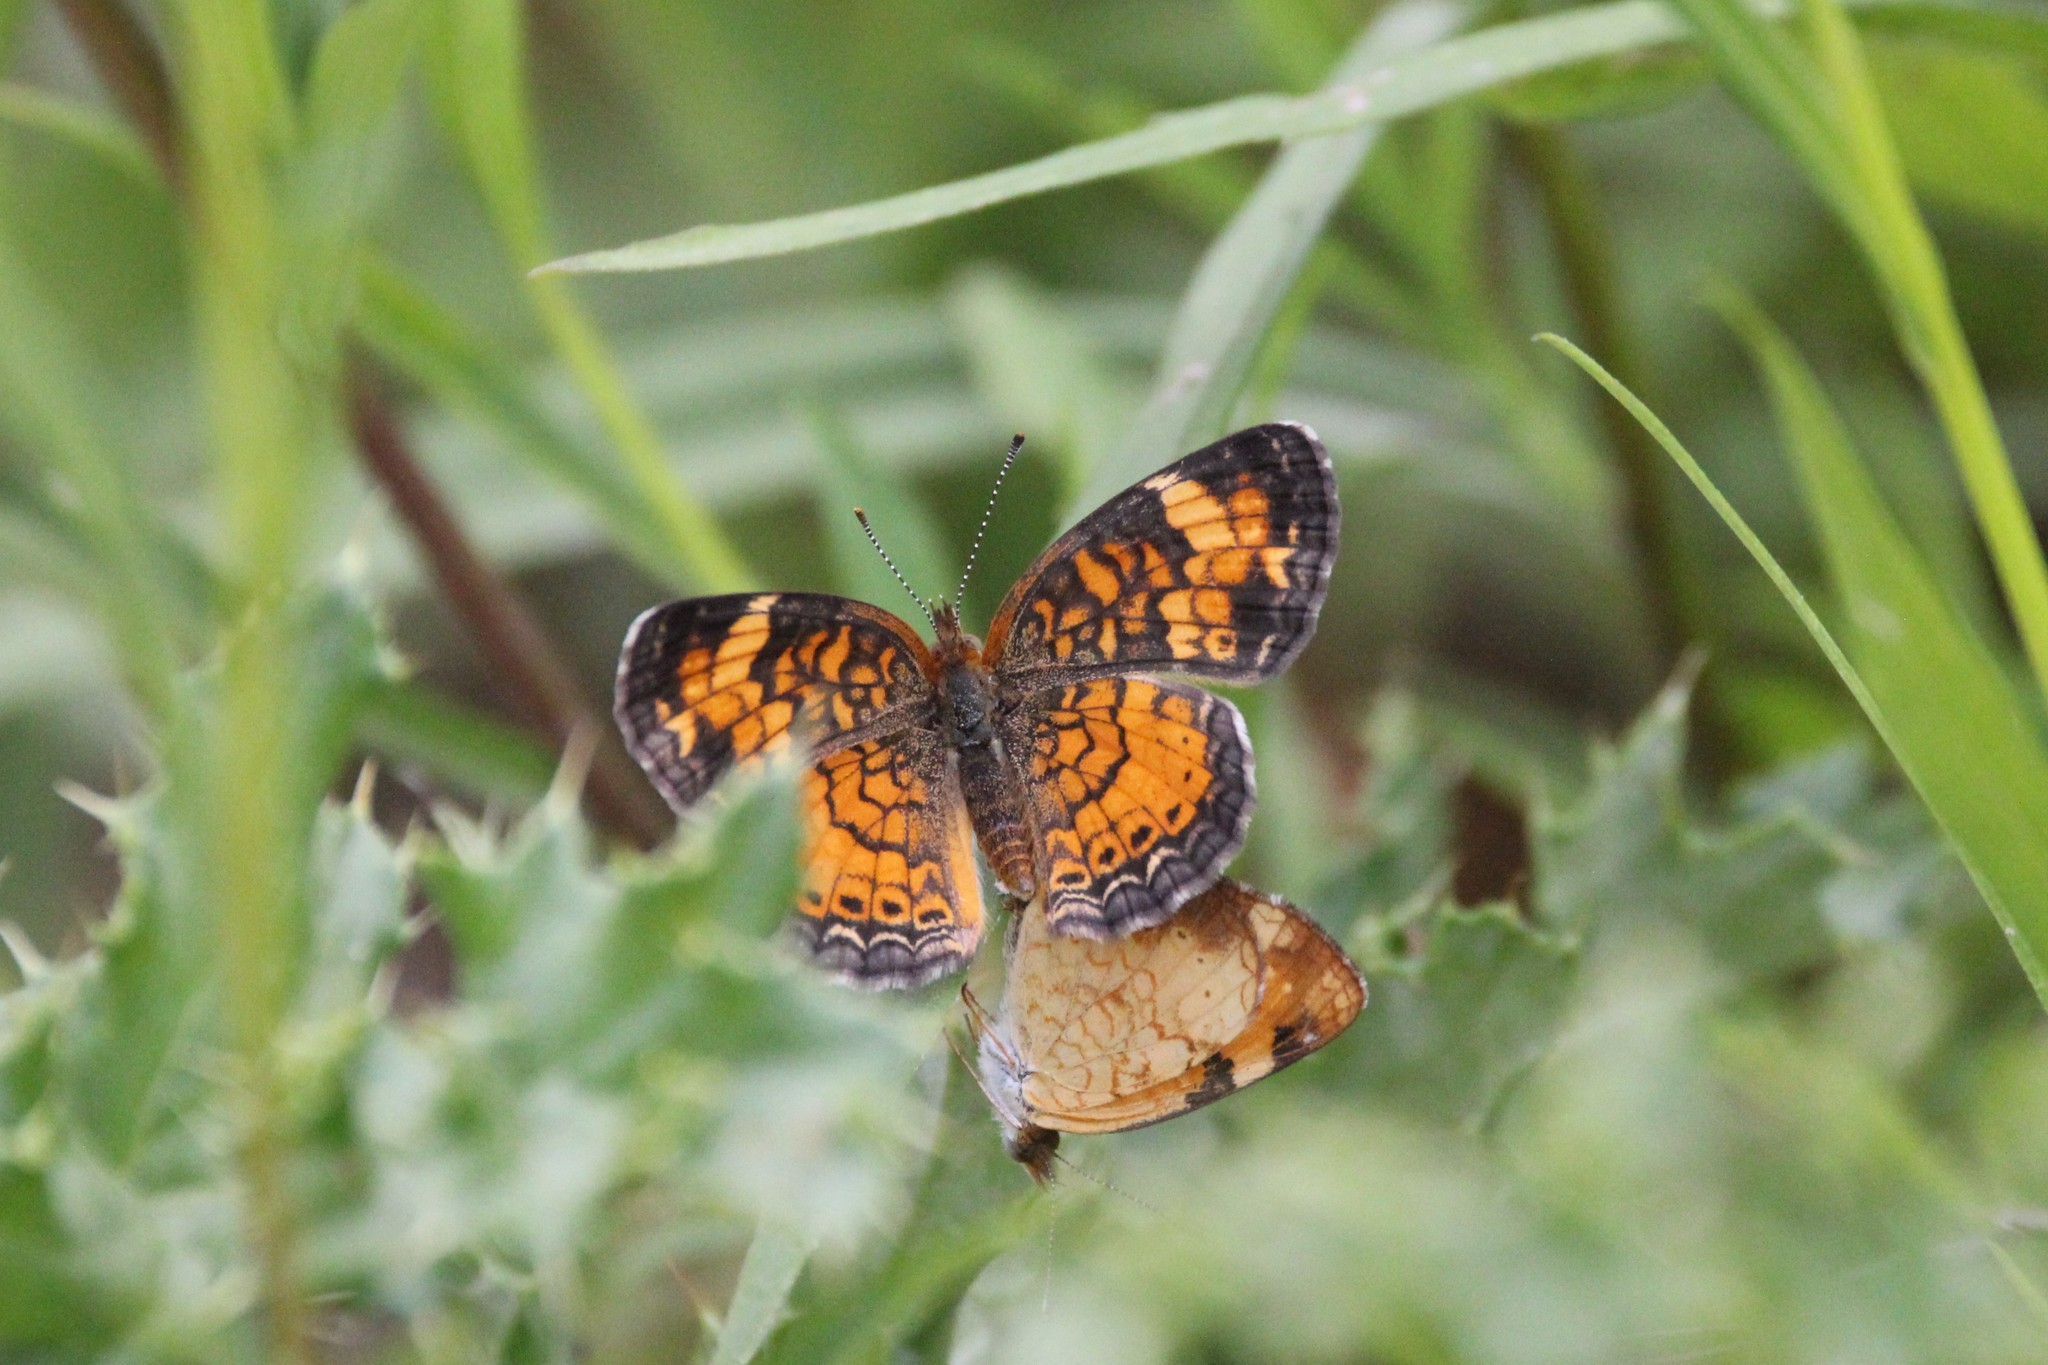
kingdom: Animalia
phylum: Arthropoda
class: Insecta
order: Lepidoptera
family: Nymphalidae
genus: Phyciodes
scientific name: Phyciodes tharos
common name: Pearl crescent
